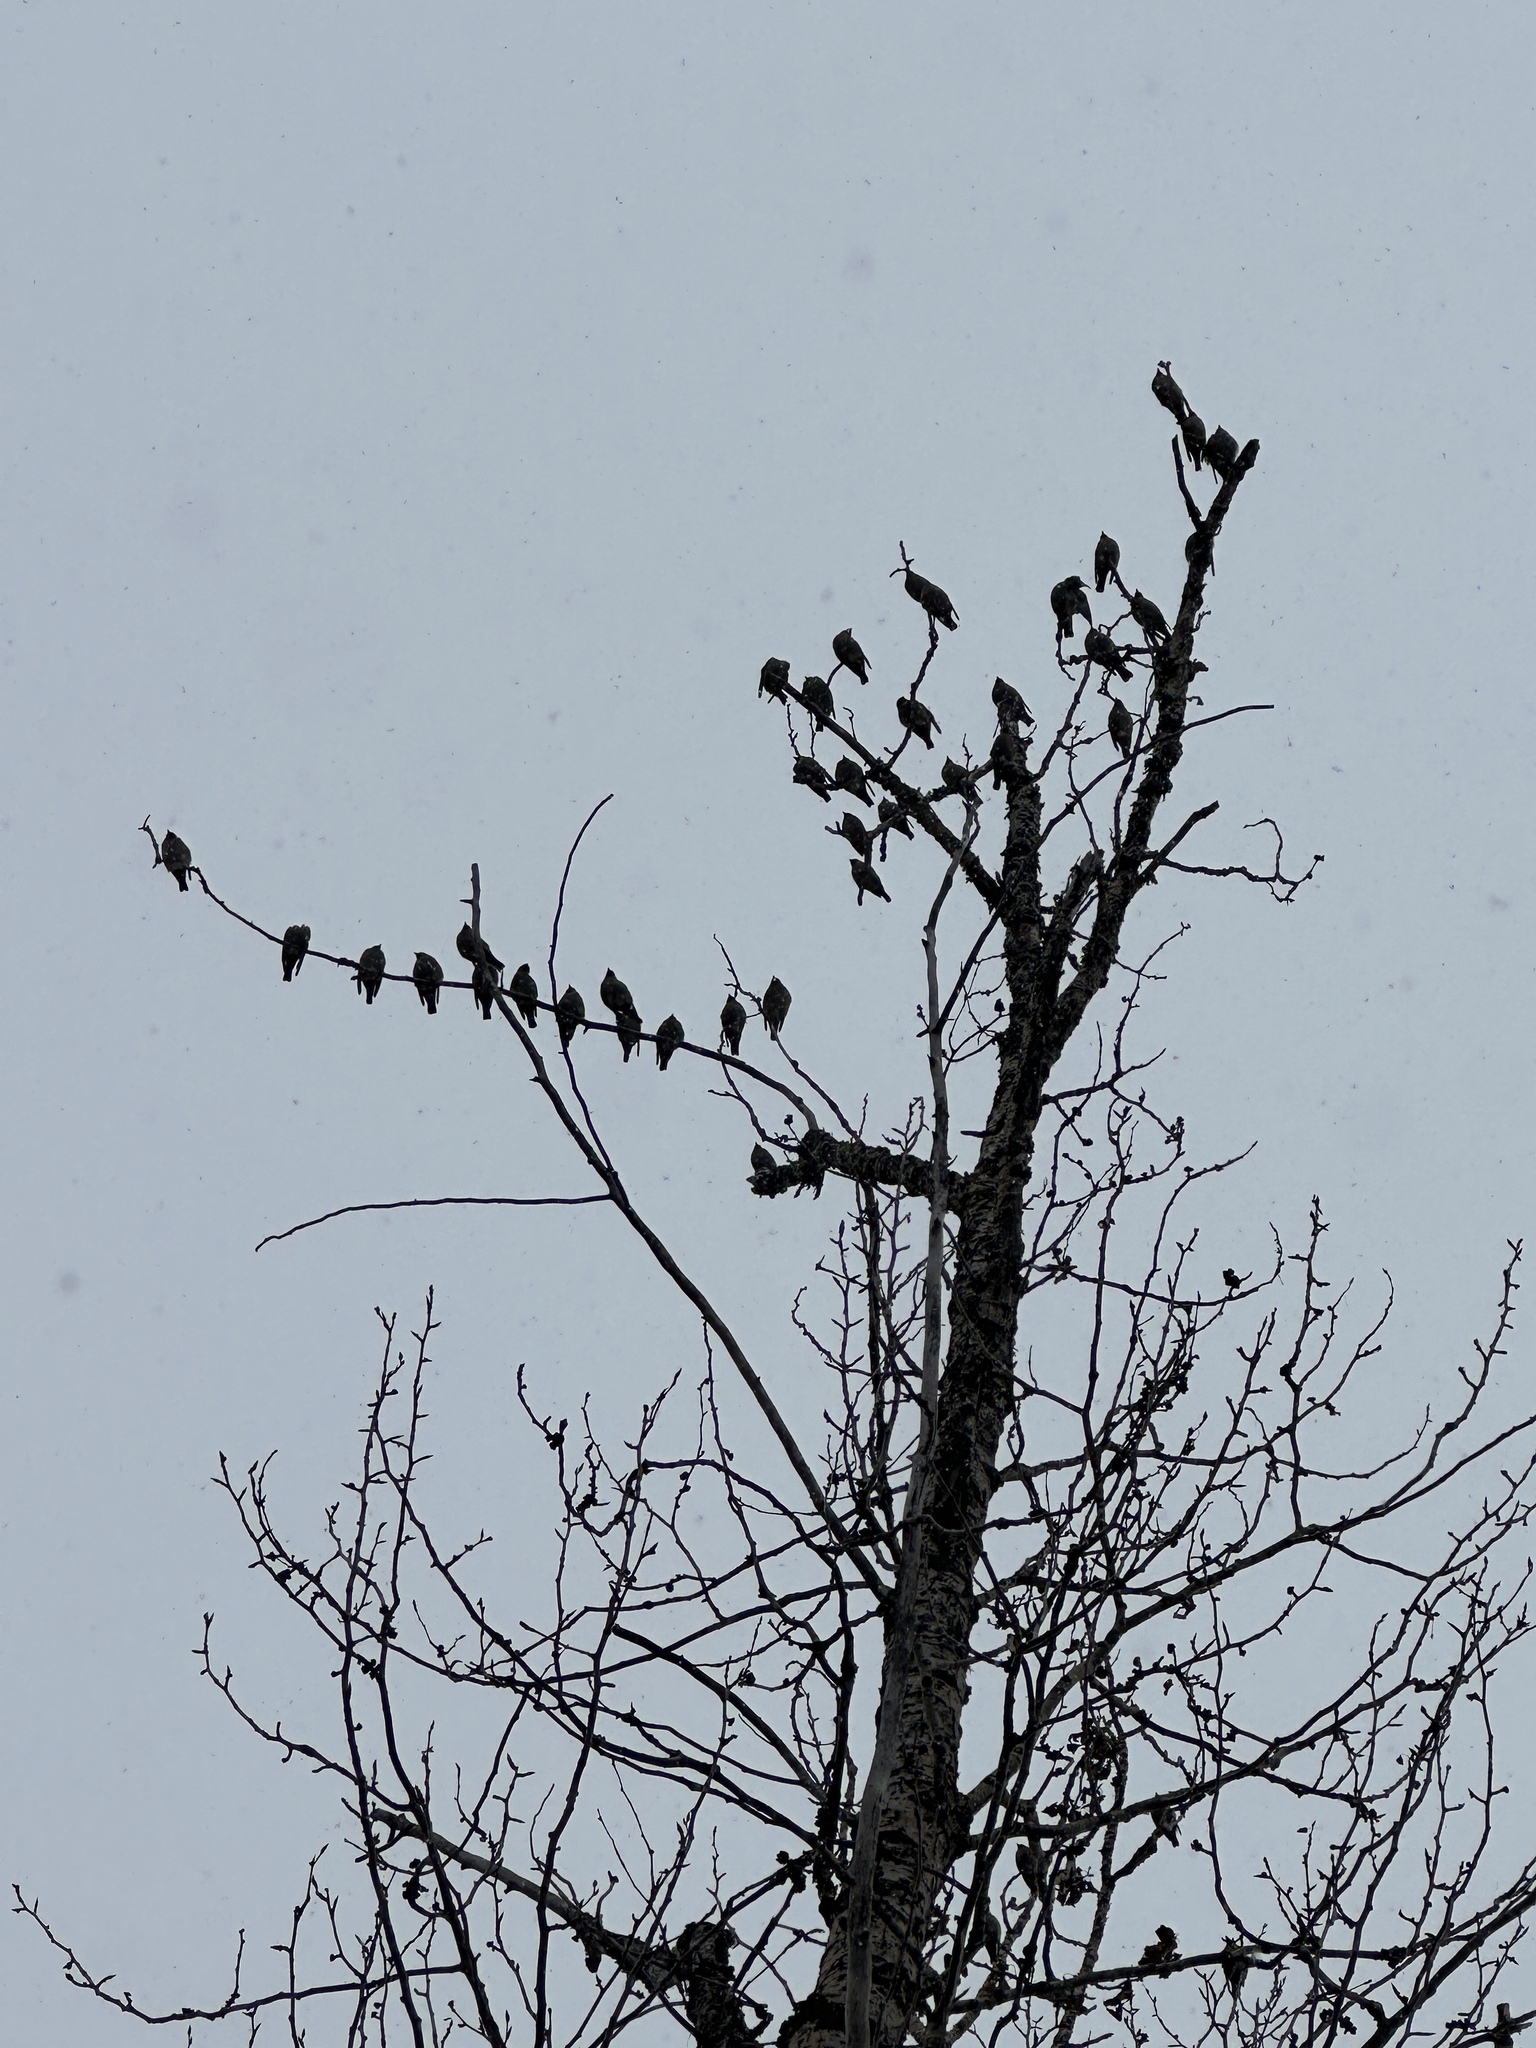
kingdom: Animalia
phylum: Chordata
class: Aves
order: Passeriformes
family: Bombycillidae
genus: Bombycilla
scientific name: Bombycilla garrulus
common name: Bohemian waxwing
